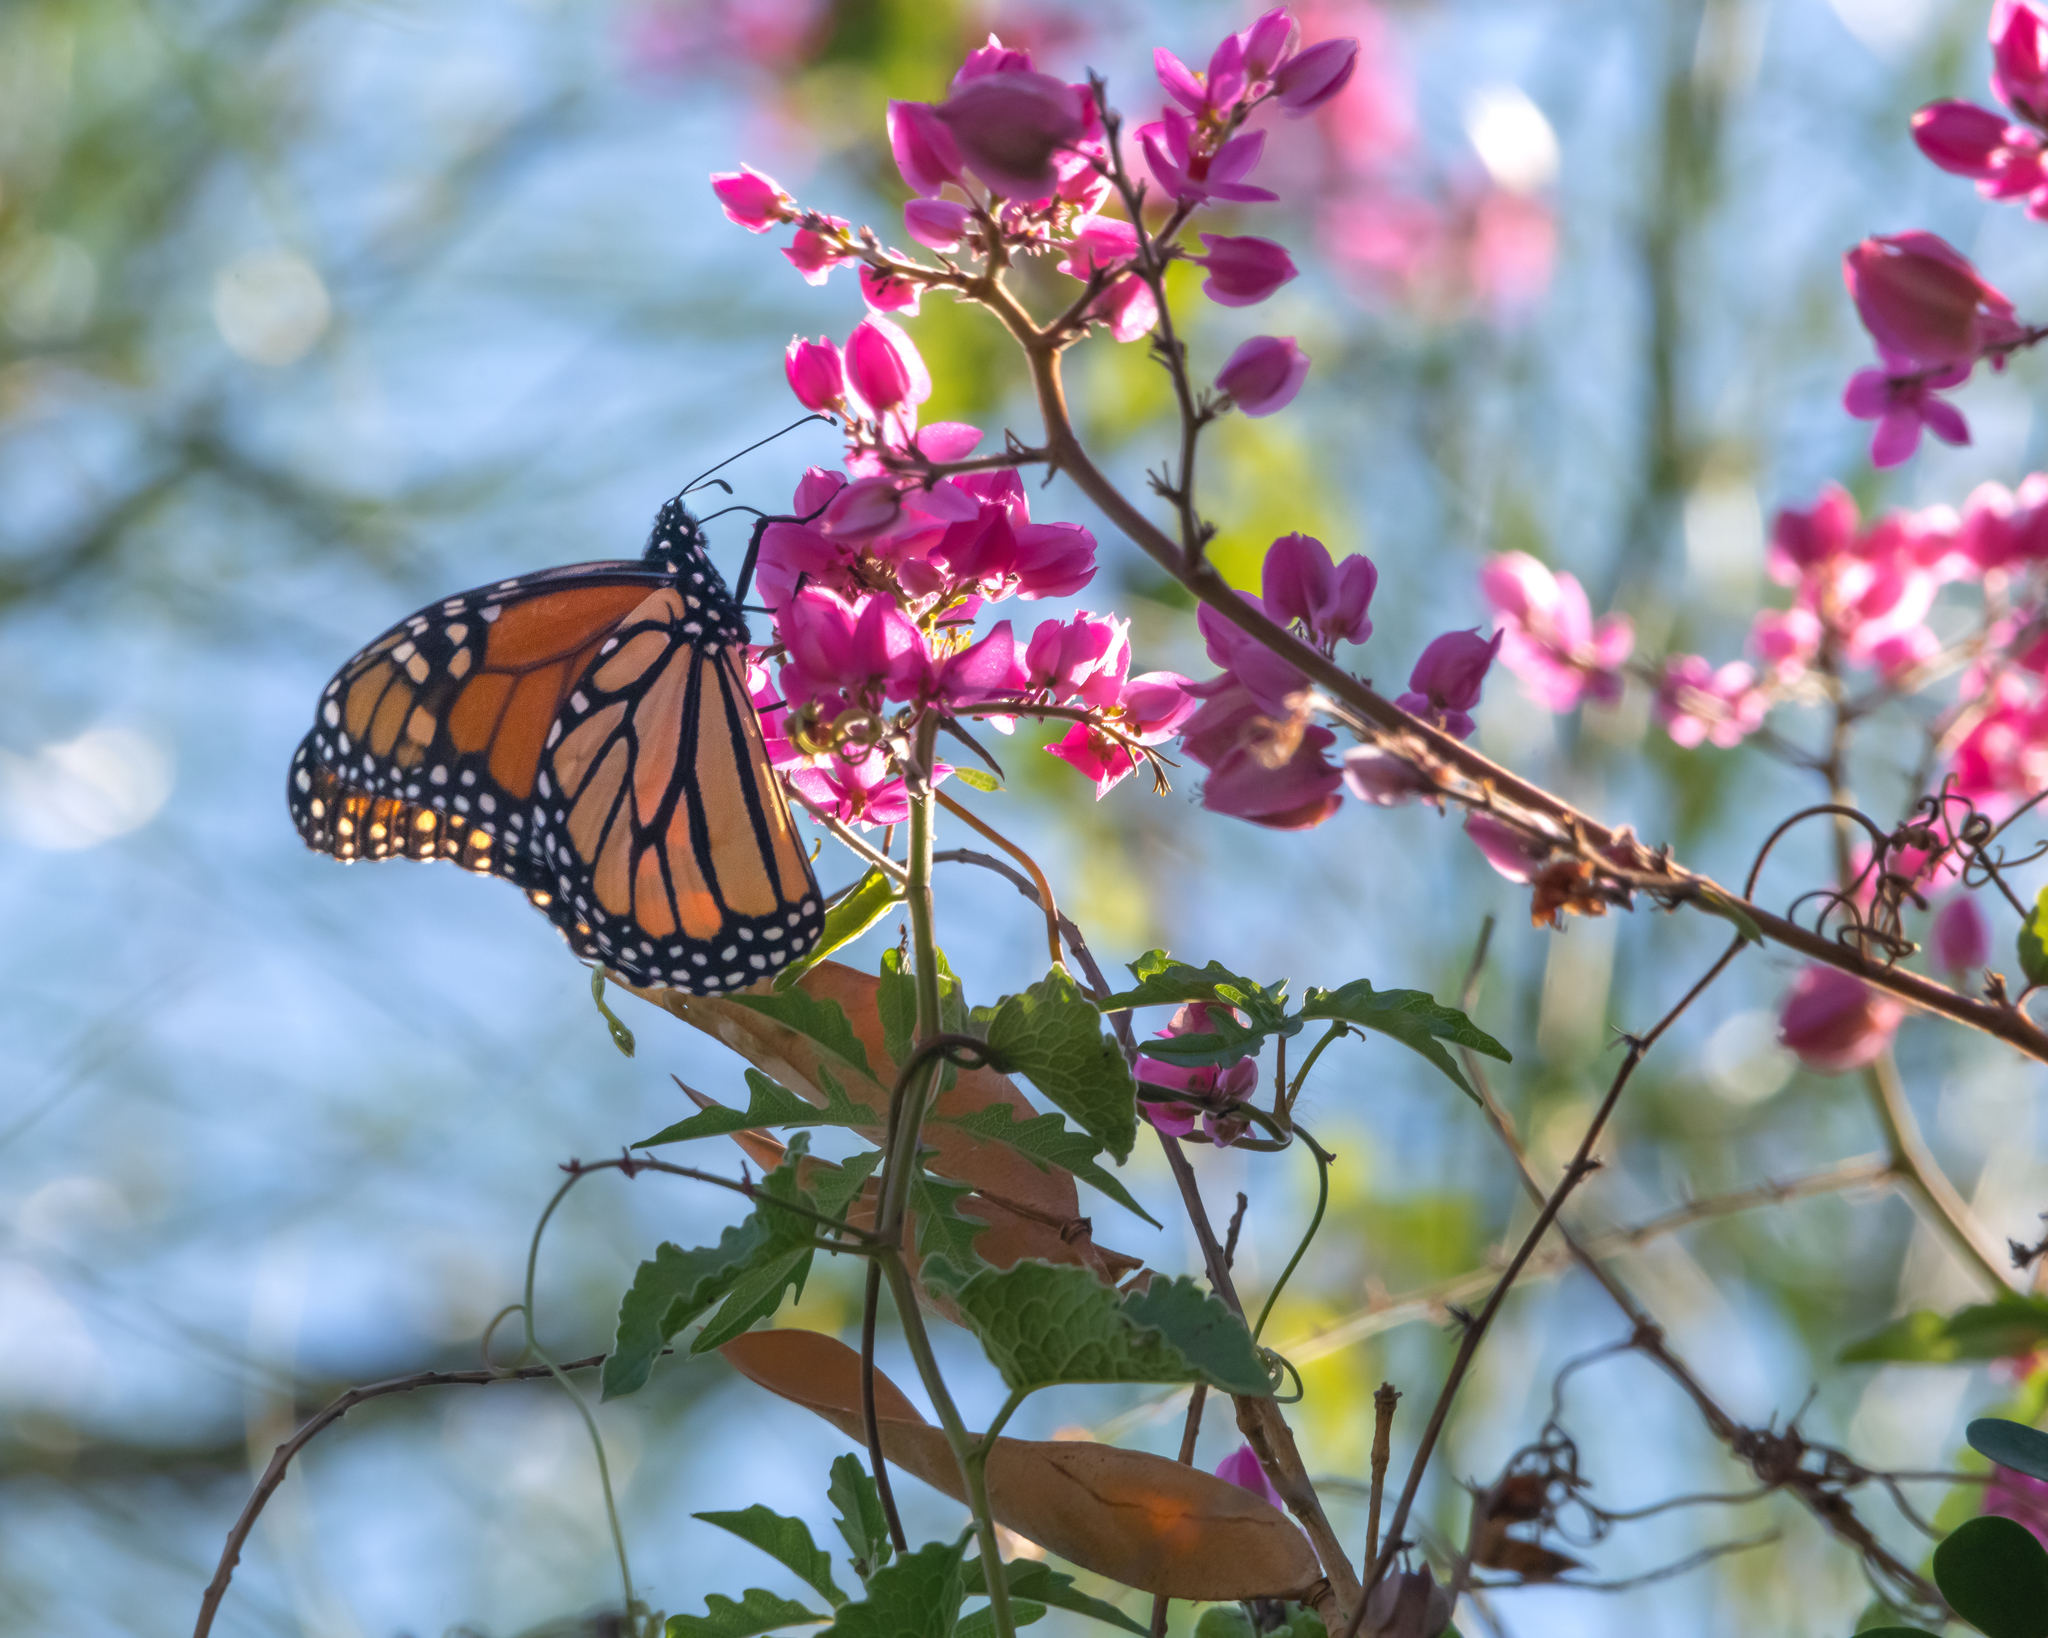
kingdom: Animalia
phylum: Arthropoda
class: Insecta
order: Lepidoptera
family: Nymphalidae
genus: Danaus
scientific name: Danaus plexippus
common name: Monarch
